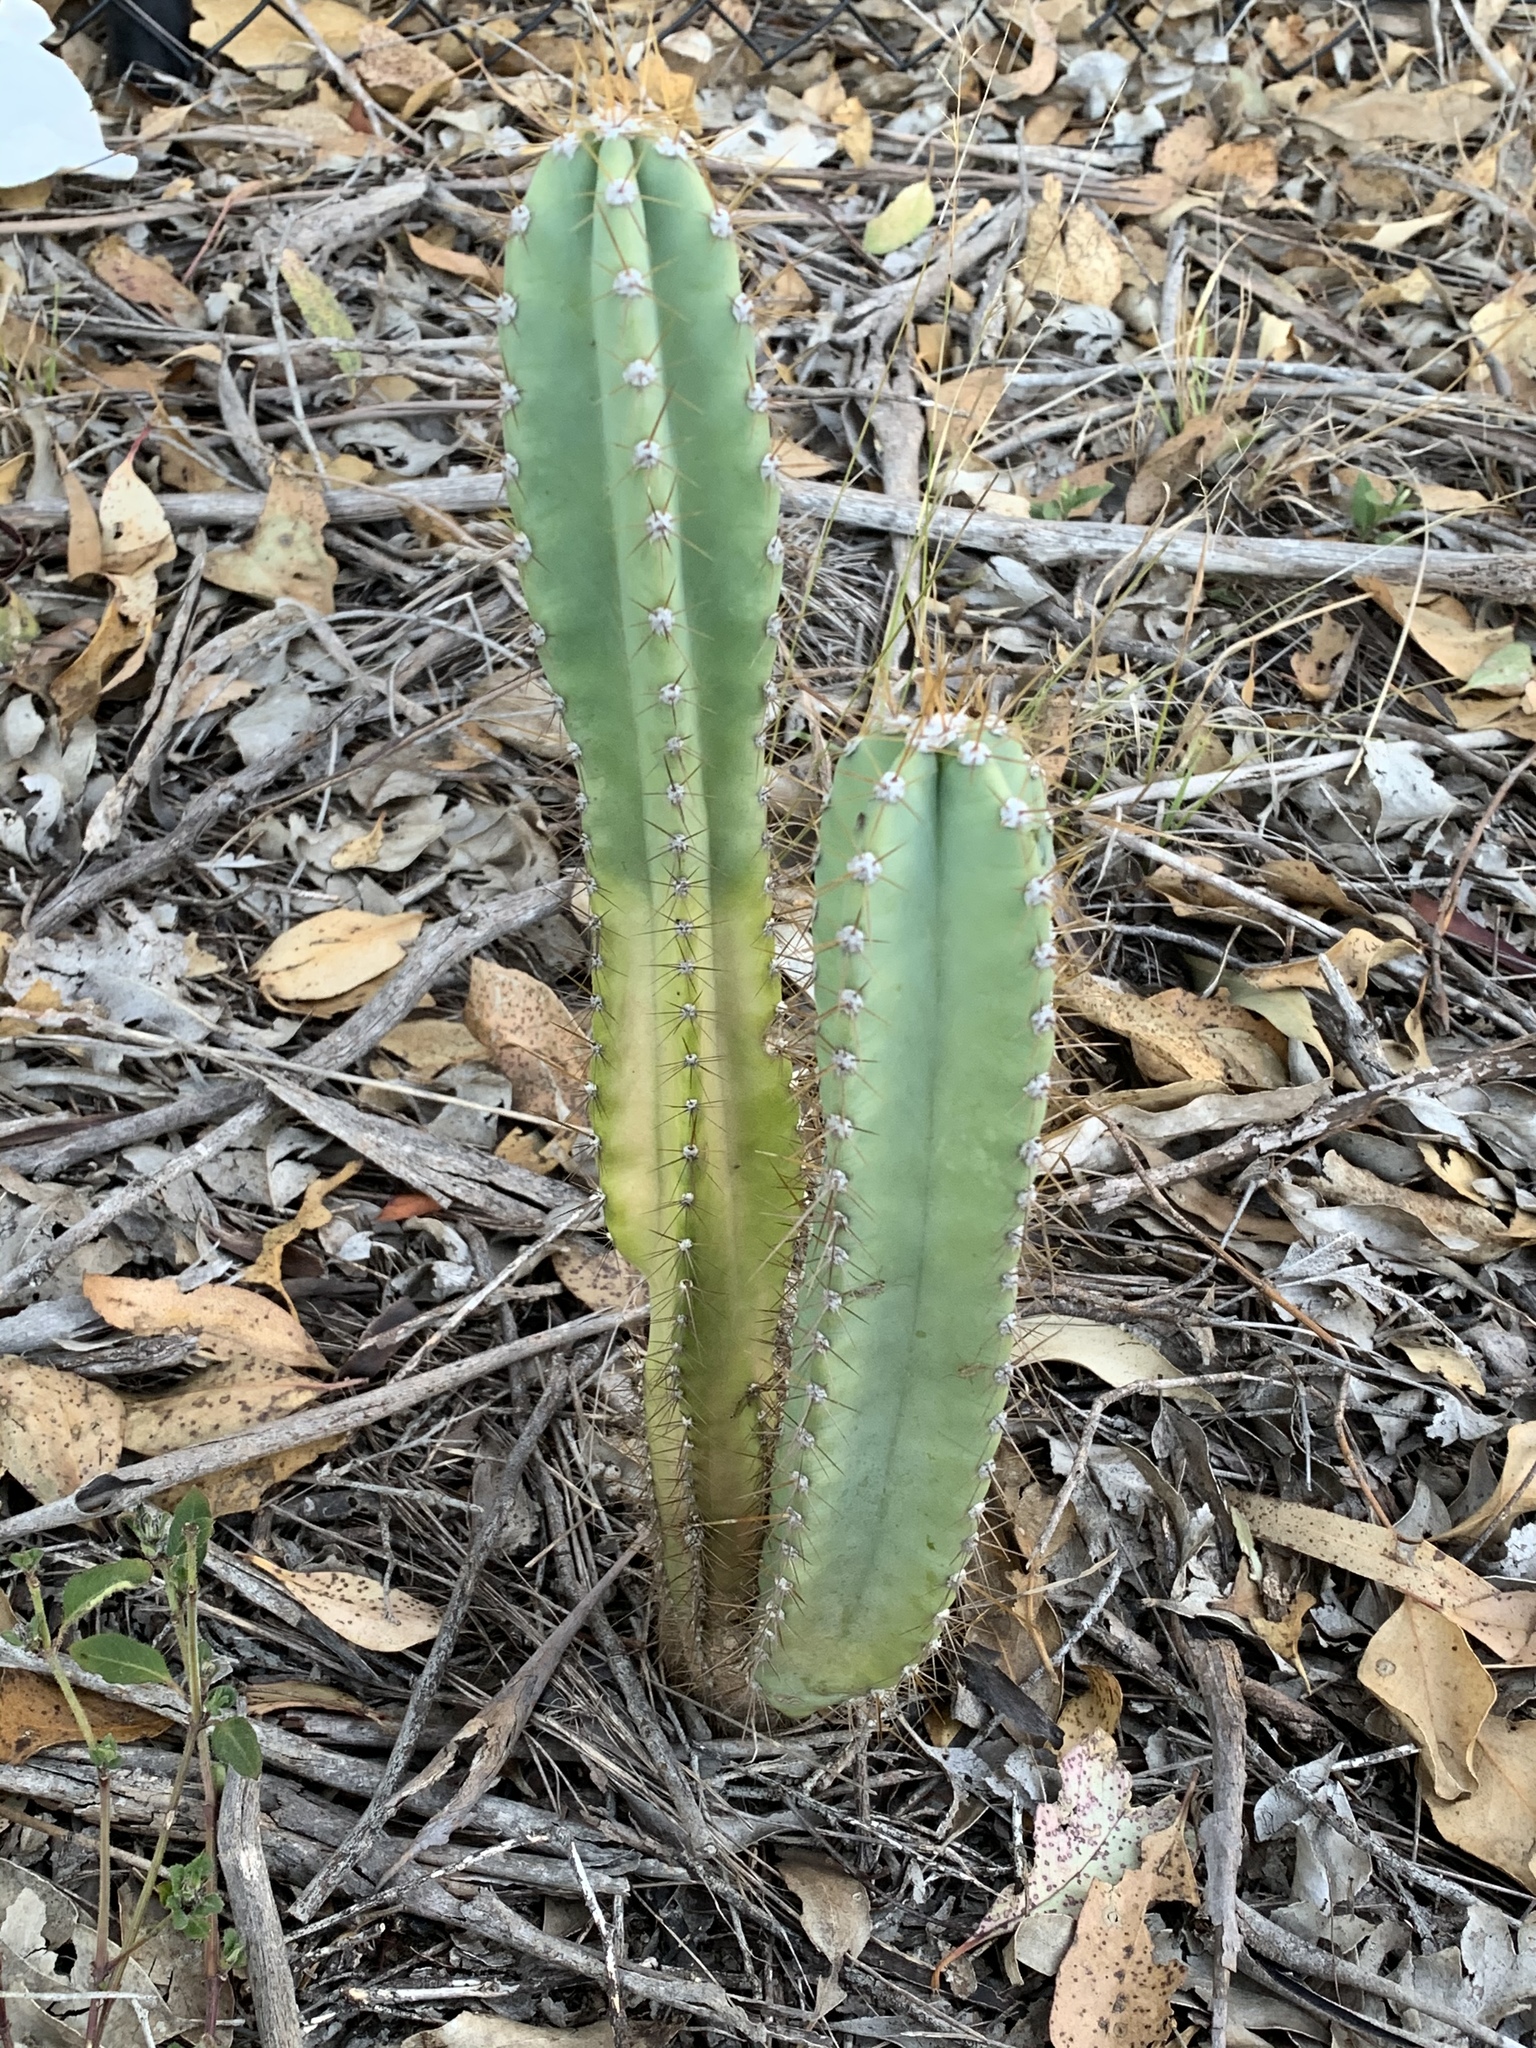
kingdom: Plantae
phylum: Tracheophyta
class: Magnoliopsida
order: Caryophyllales
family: Cactaceae
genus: Cereus
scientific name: Cereus hildmannianus
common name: Hedge cactus
